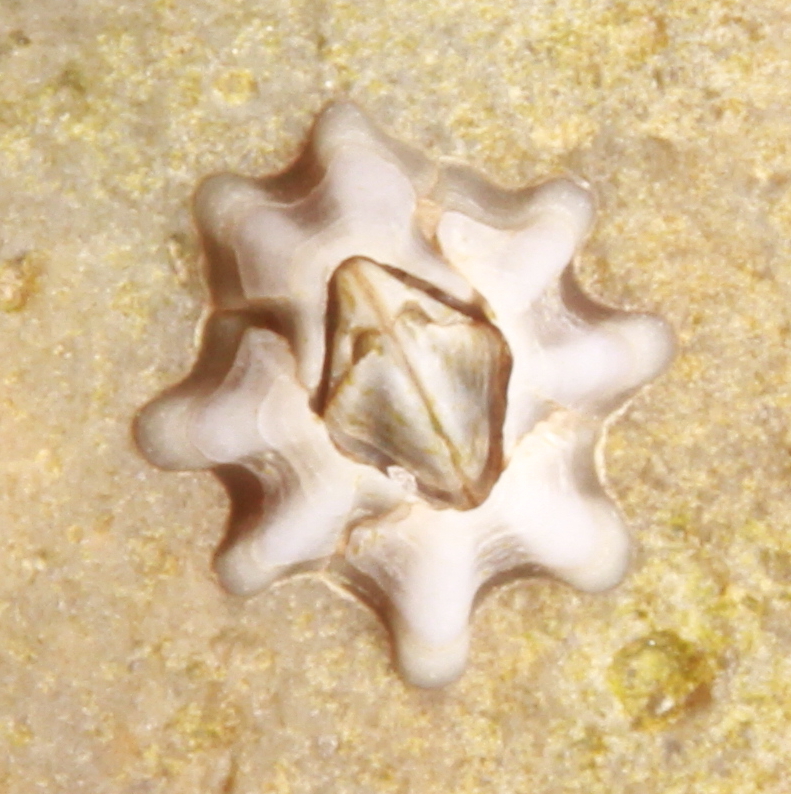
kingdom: Animalia
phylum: Arthropoda
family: Elminiidae
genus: Austrominius
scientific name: Austrominius modestus
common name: Australasian barnacle
